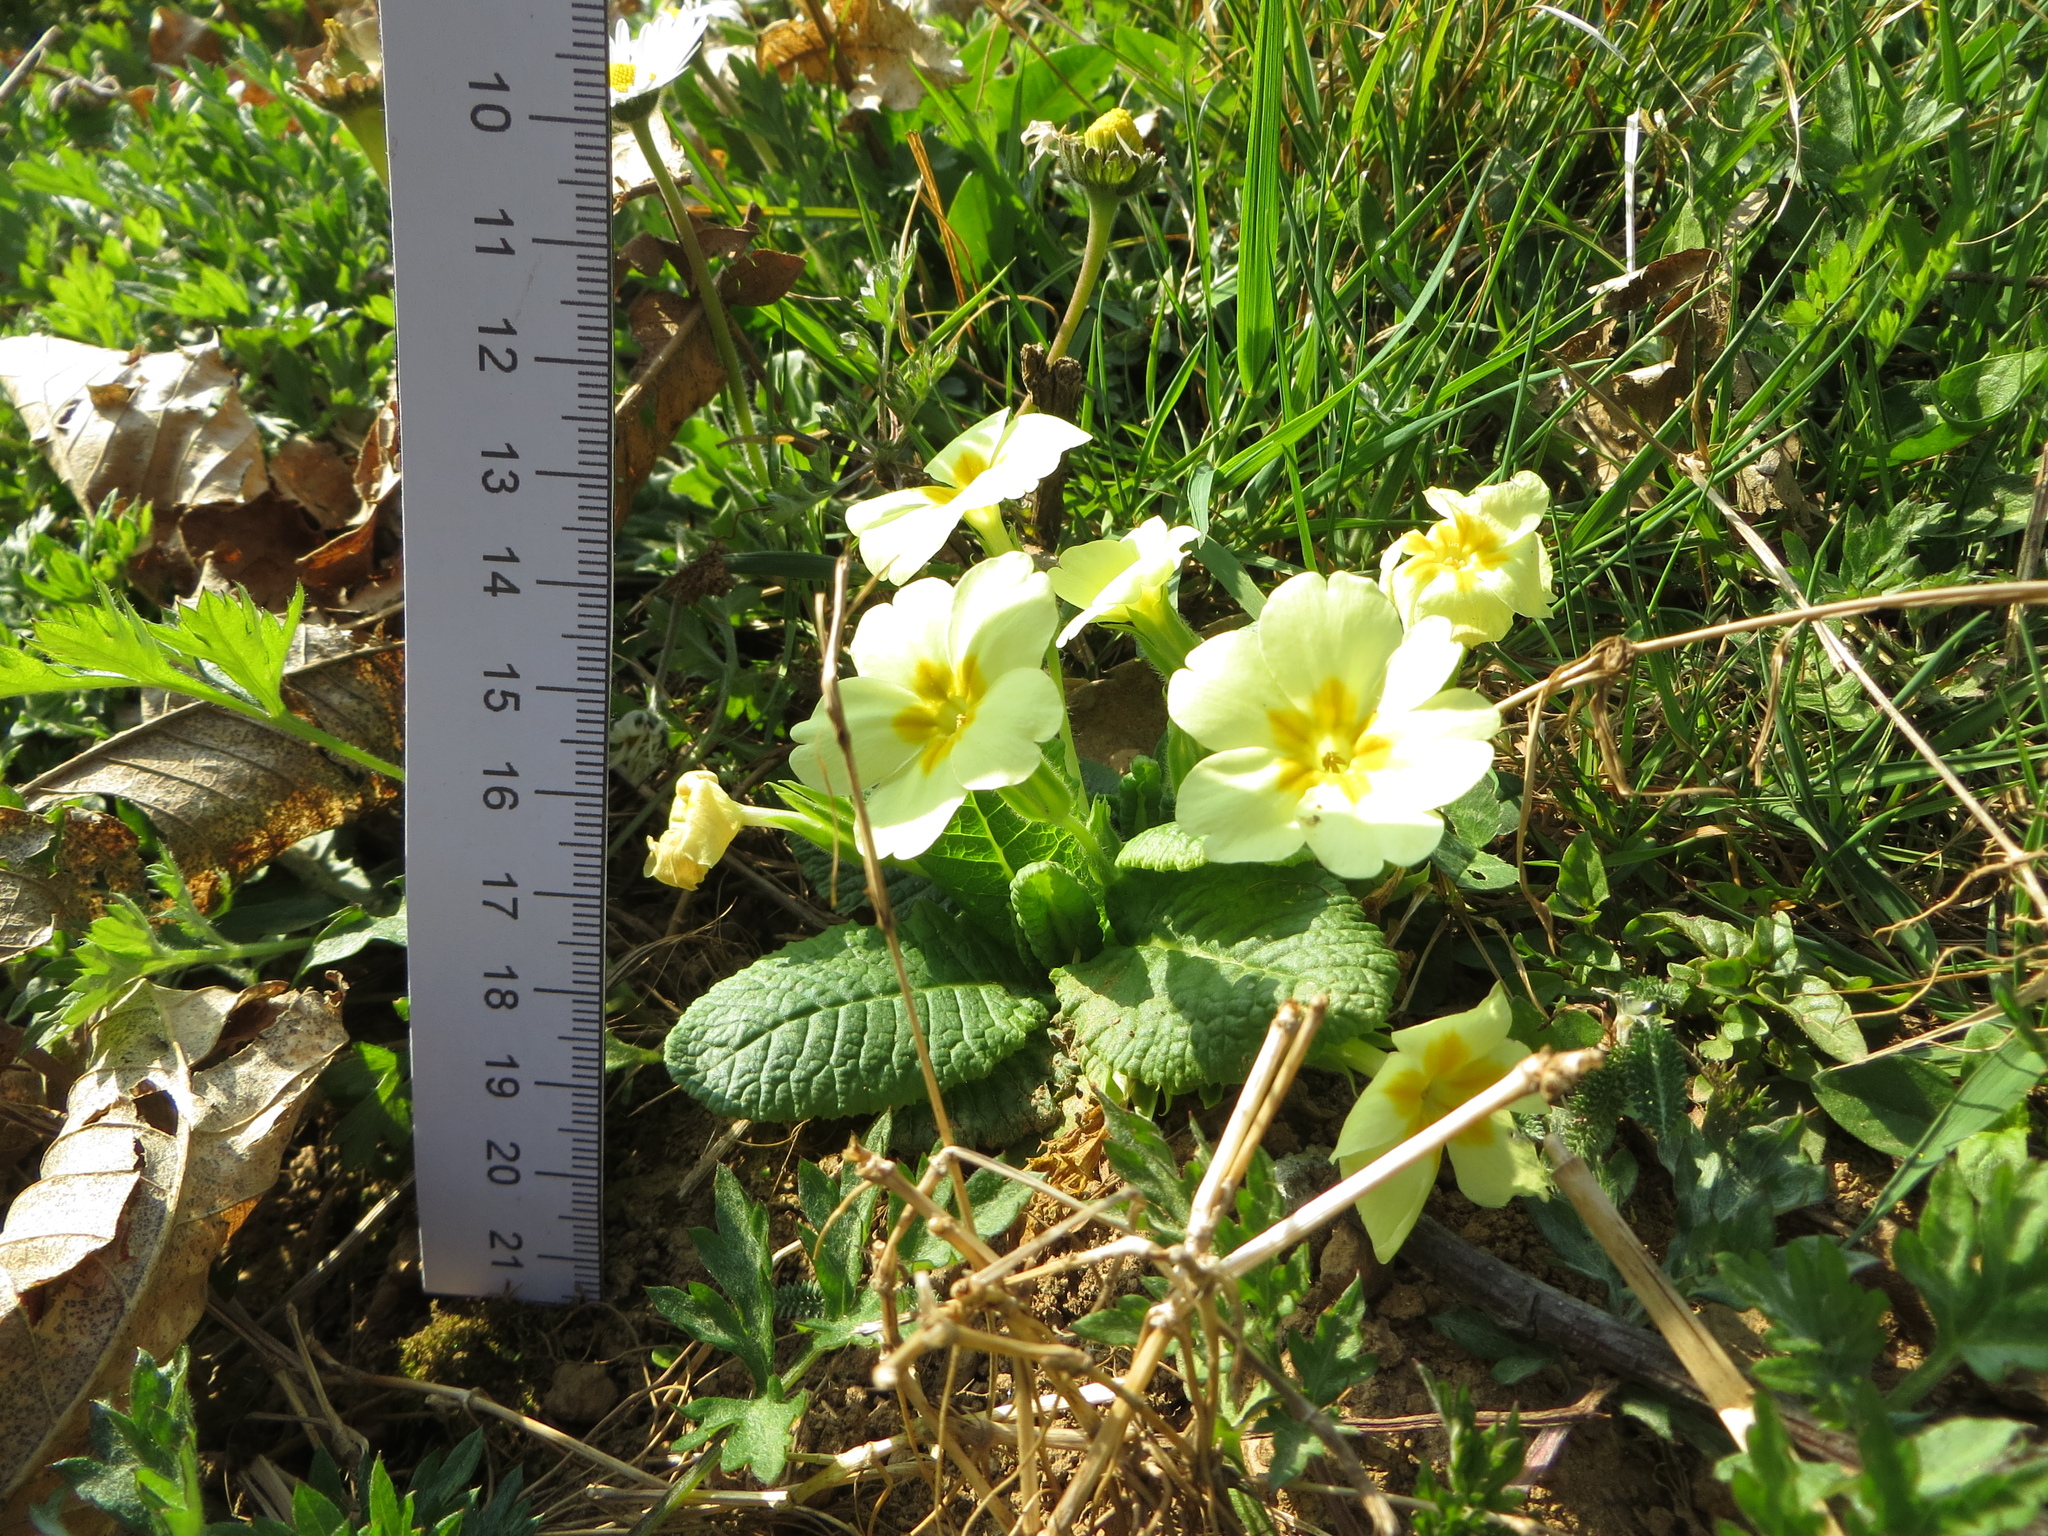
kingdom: Plantae
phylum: Tracheophyta
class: Magnoliopsida
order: Ericales
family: Primulaceae
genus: Primula
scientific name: Primula vulgaris
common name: Primrose
